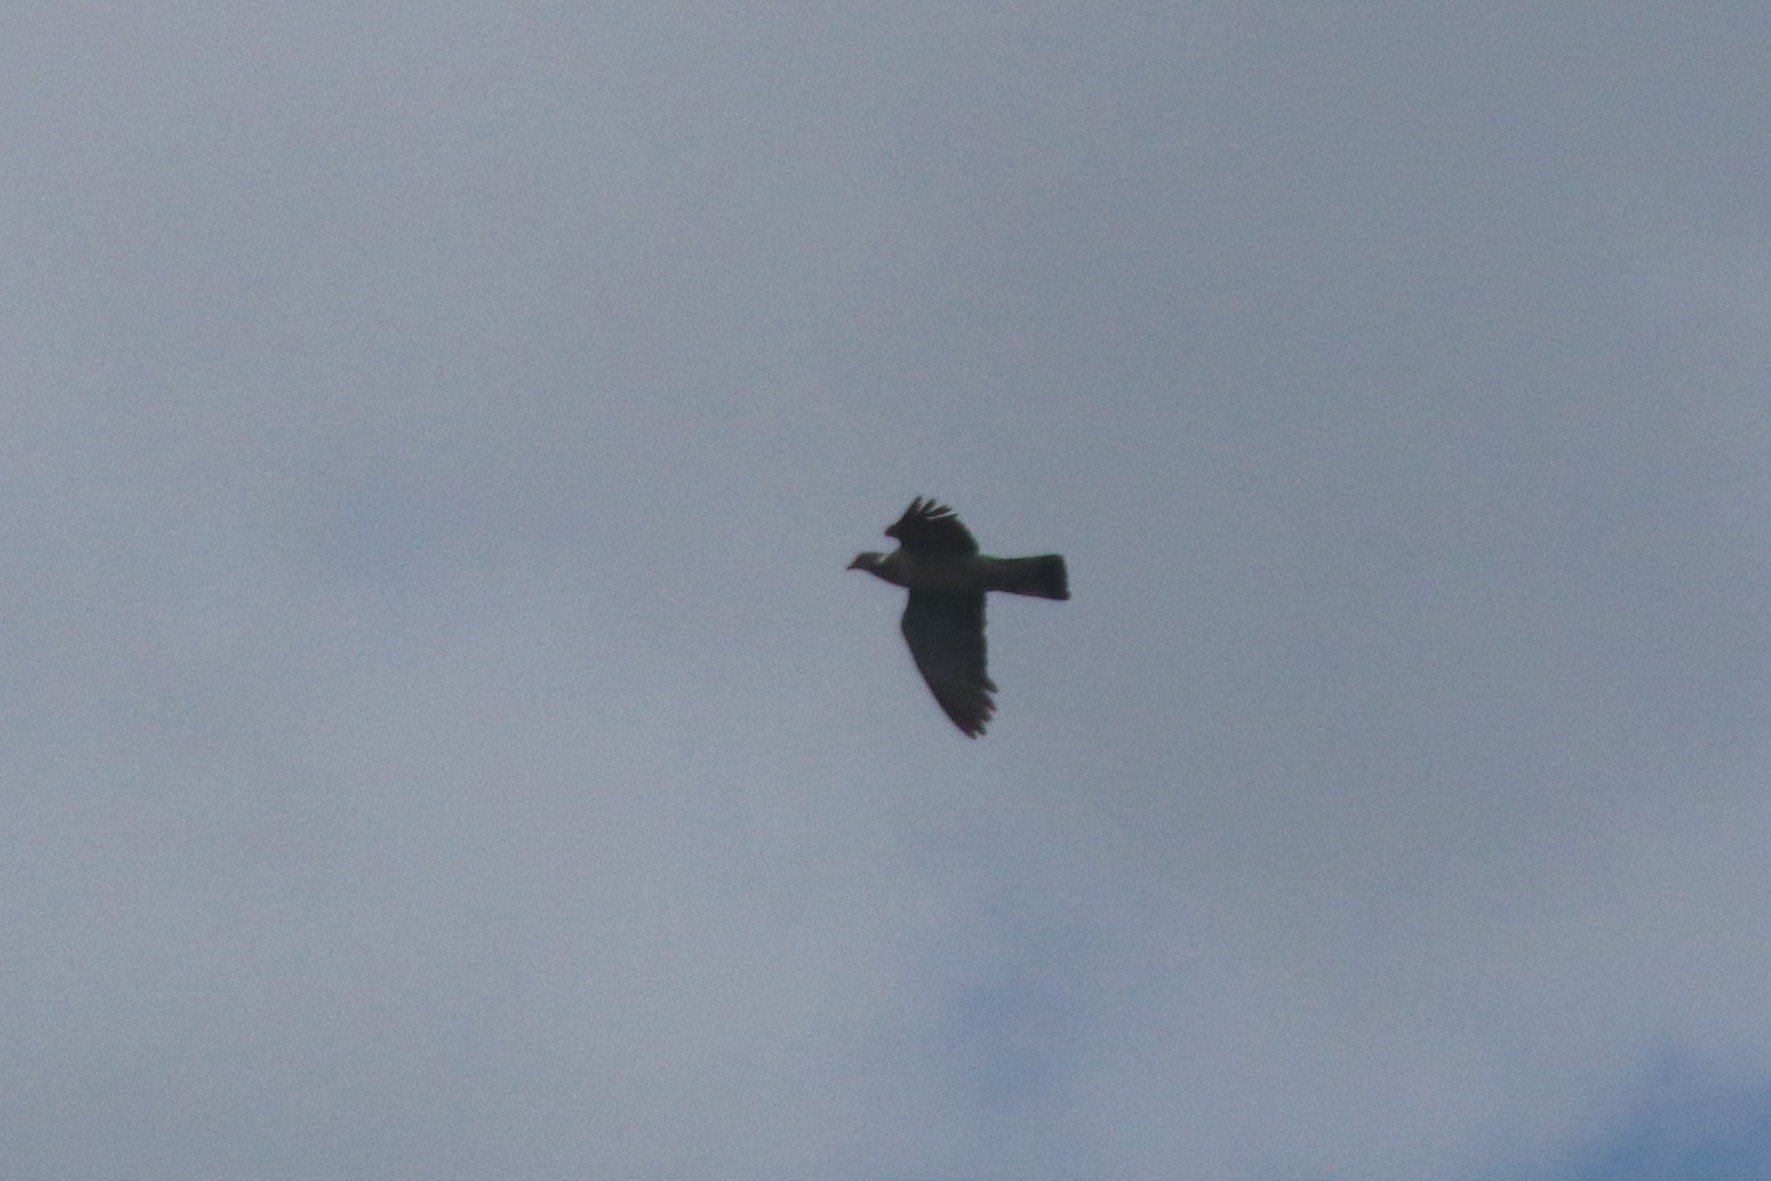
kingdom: Animalia
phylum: Chordata
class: Aves
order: Columbiformes
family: Columbidae
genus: Columba
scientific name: Columba palumbus
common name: Common wood pigeon
